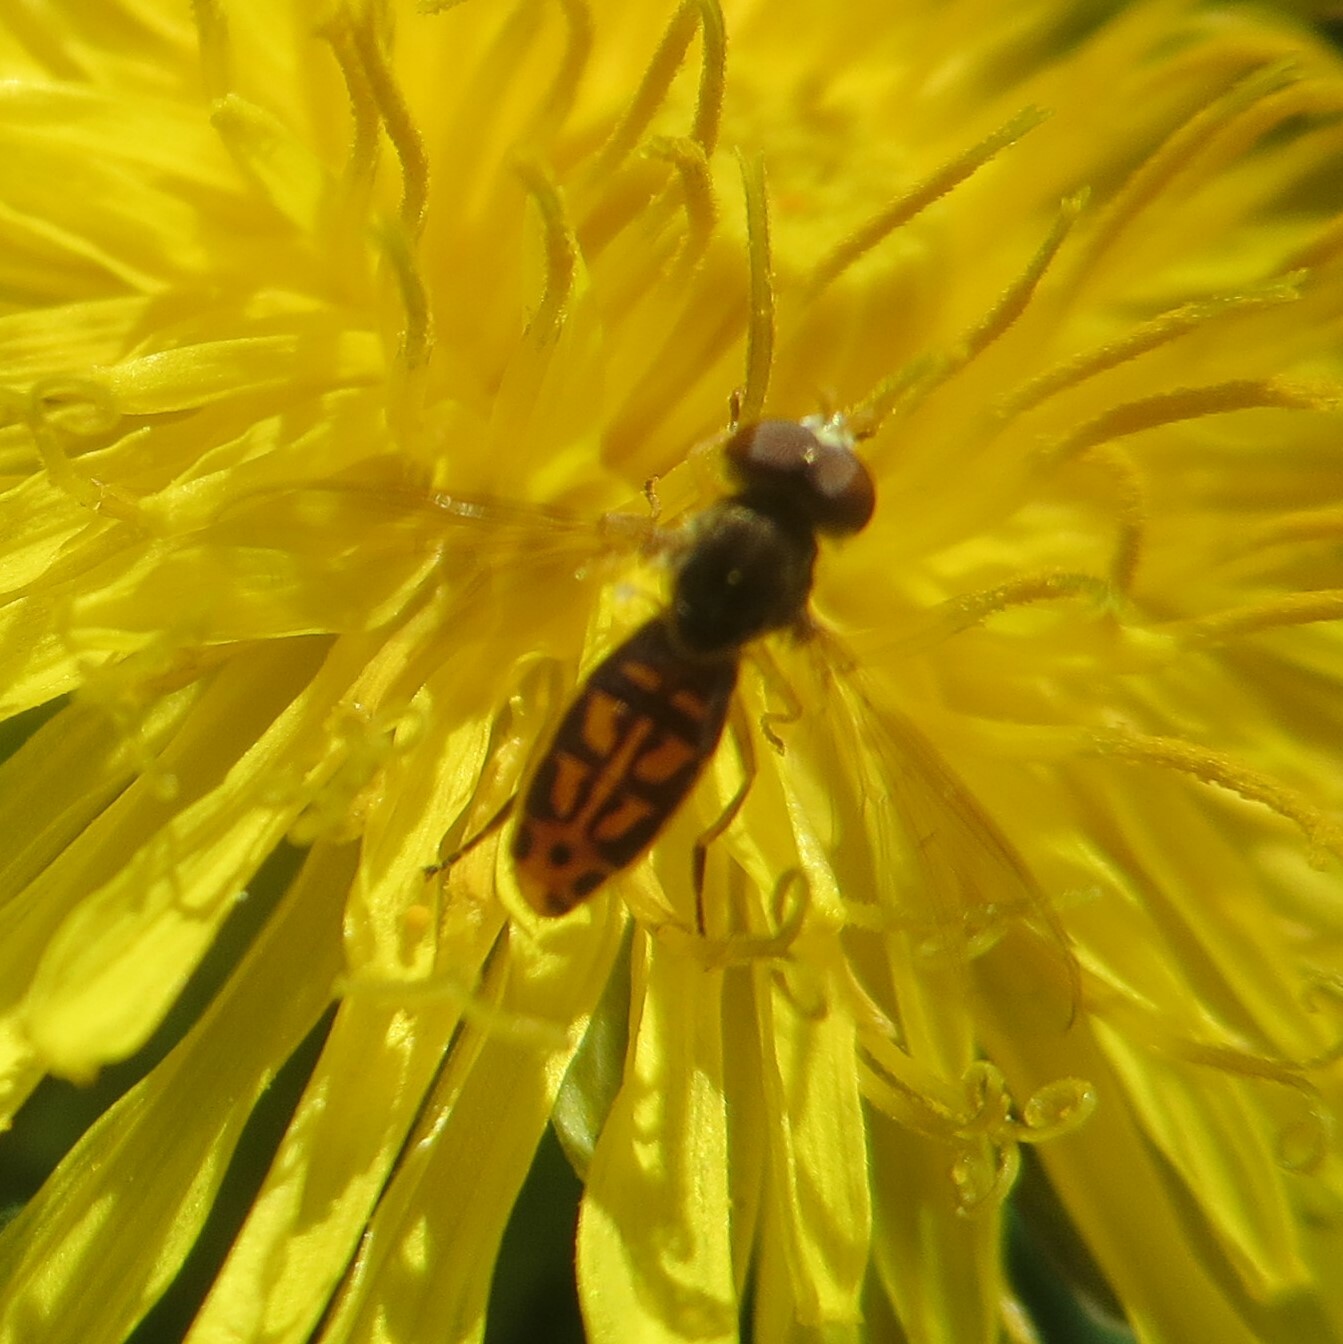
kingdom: Animalia
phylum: Arthropoda
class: Insecta
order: Diptera
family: Syrphidae
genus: Toxomerus
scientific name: Toxomerus marginatus
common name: Syrphid fly
